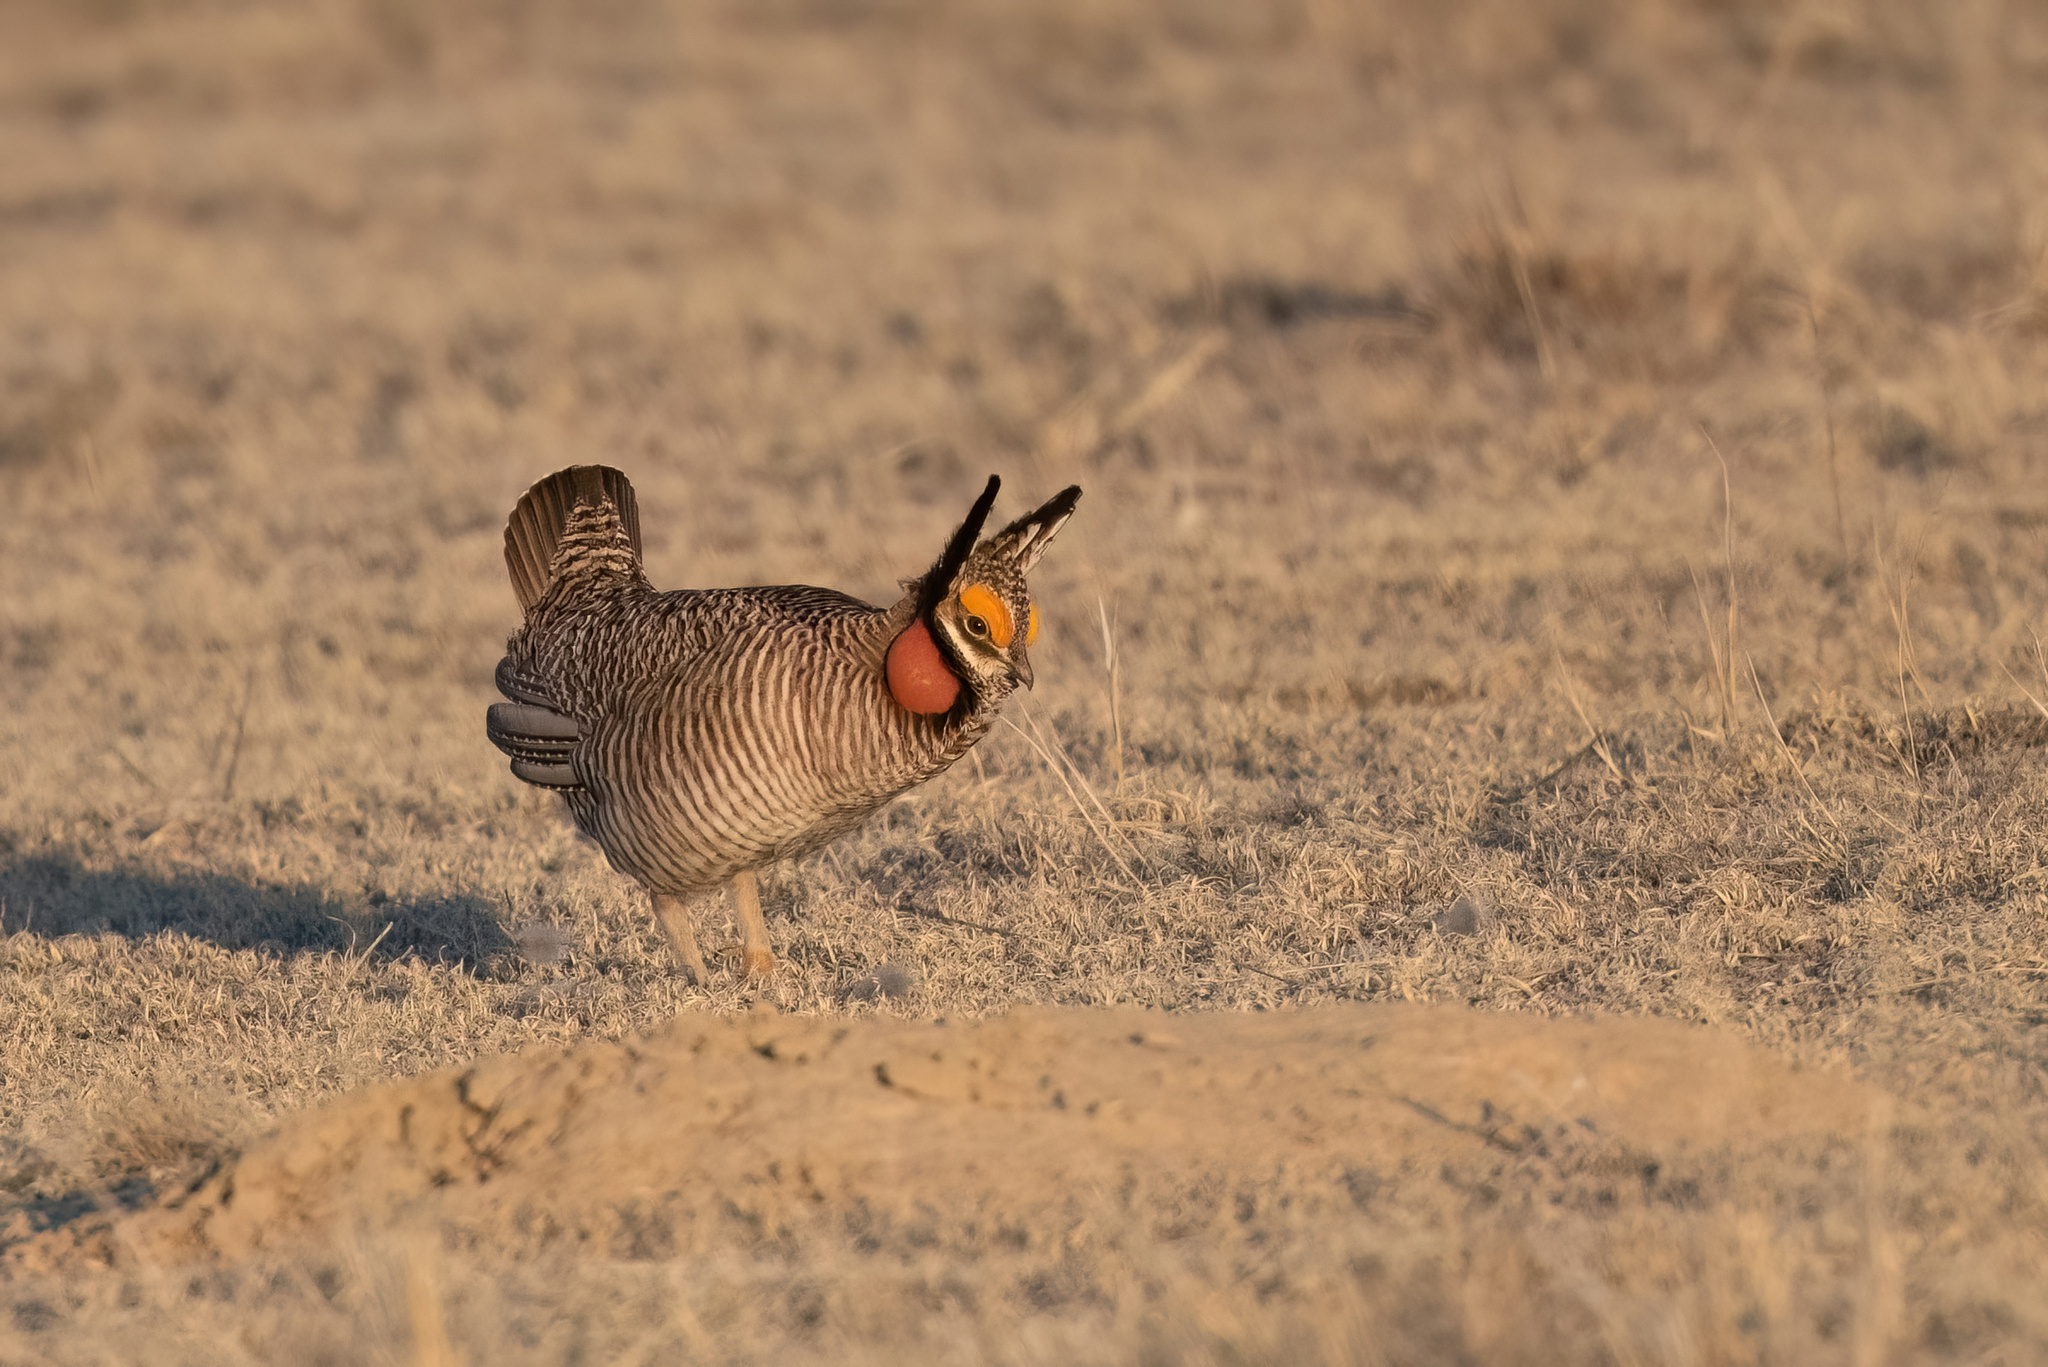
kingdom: Animalia
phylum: Chordata
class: Aves
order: Galliformes
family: Phasianidae
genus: Tympanuchus
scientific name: Tympanuchus pallidicinctus
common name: Lesser prairie chicken
